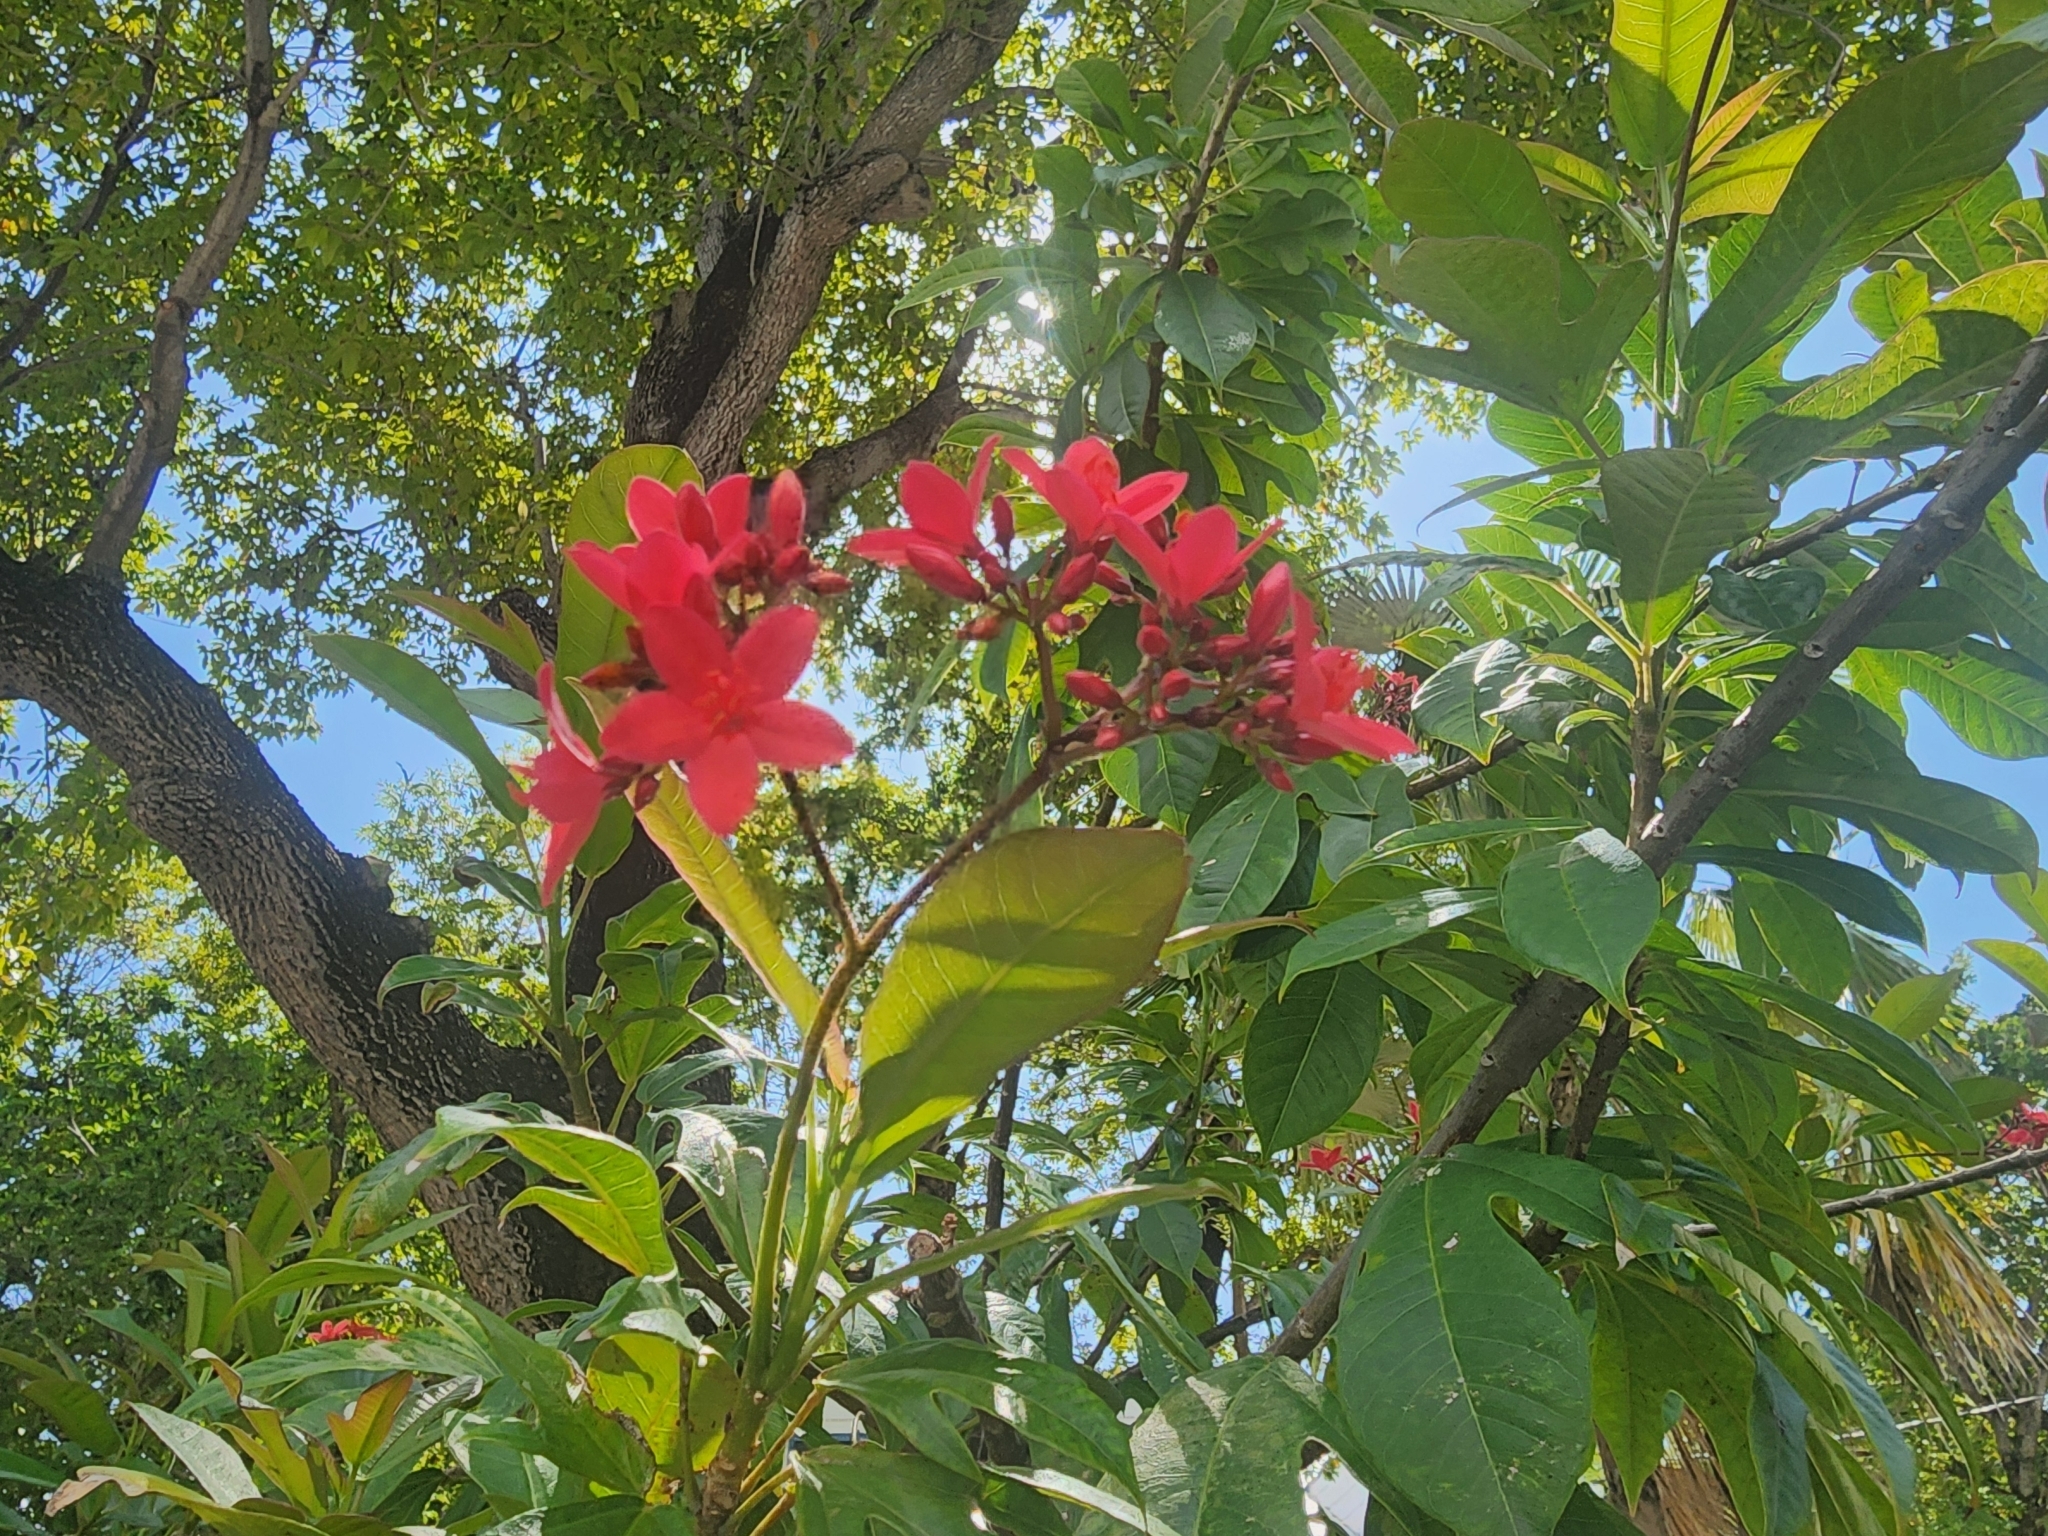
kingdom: Plantae
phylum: Tracheophyta
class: Magnoliopsida
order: Malpighiales
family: Euphorbiaceae
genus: Jatropha
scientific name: Jatropha integerrima
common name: Peregrina
